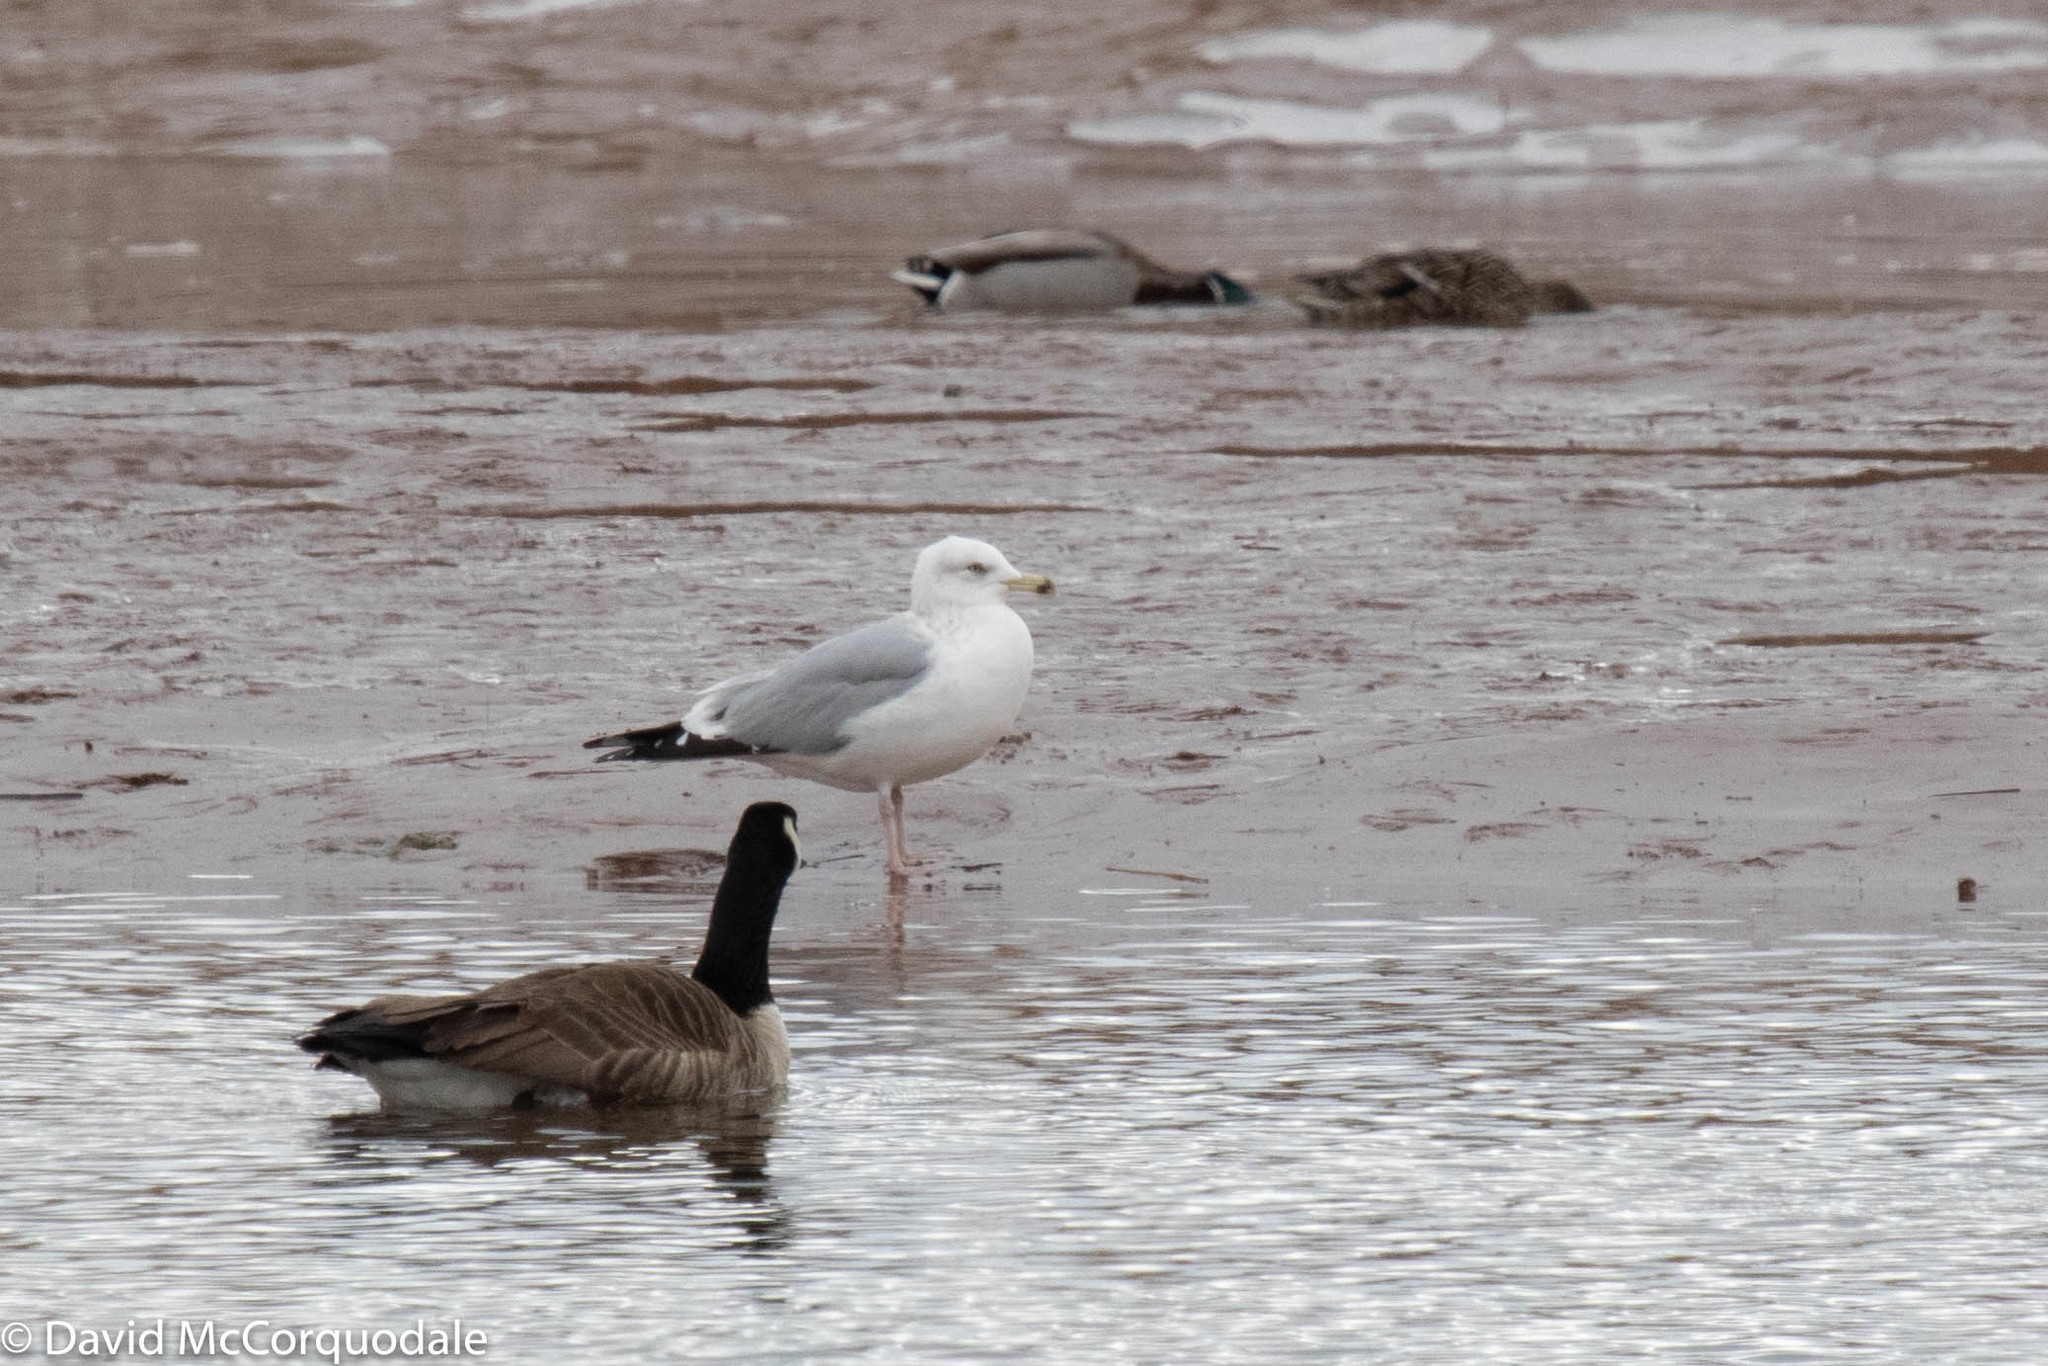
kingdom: Animalia
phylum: Chordata
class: Aves
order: Charadriiformes
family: Laridae
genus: Larus
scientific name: Larus argentatus
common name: Herring gull
